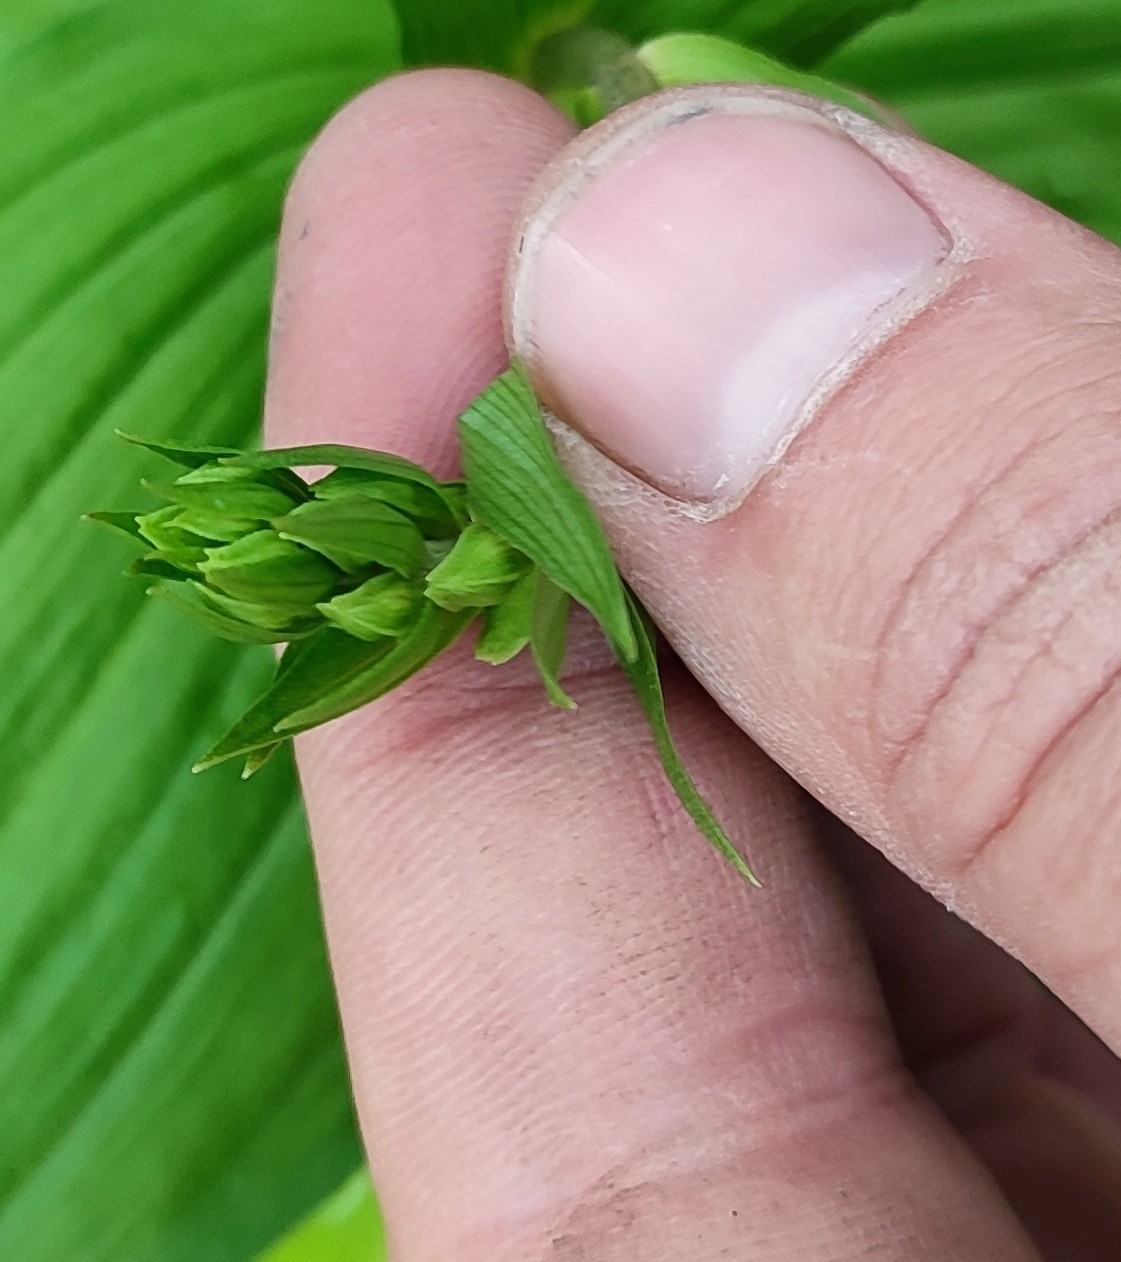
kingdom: Plantae
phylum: Tracheophyta
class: Liliopsida
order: Asparagales
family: Orchidaceae
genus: Epipactis
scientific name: Epipactis helleborine
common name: Broad-leaved helleborine
